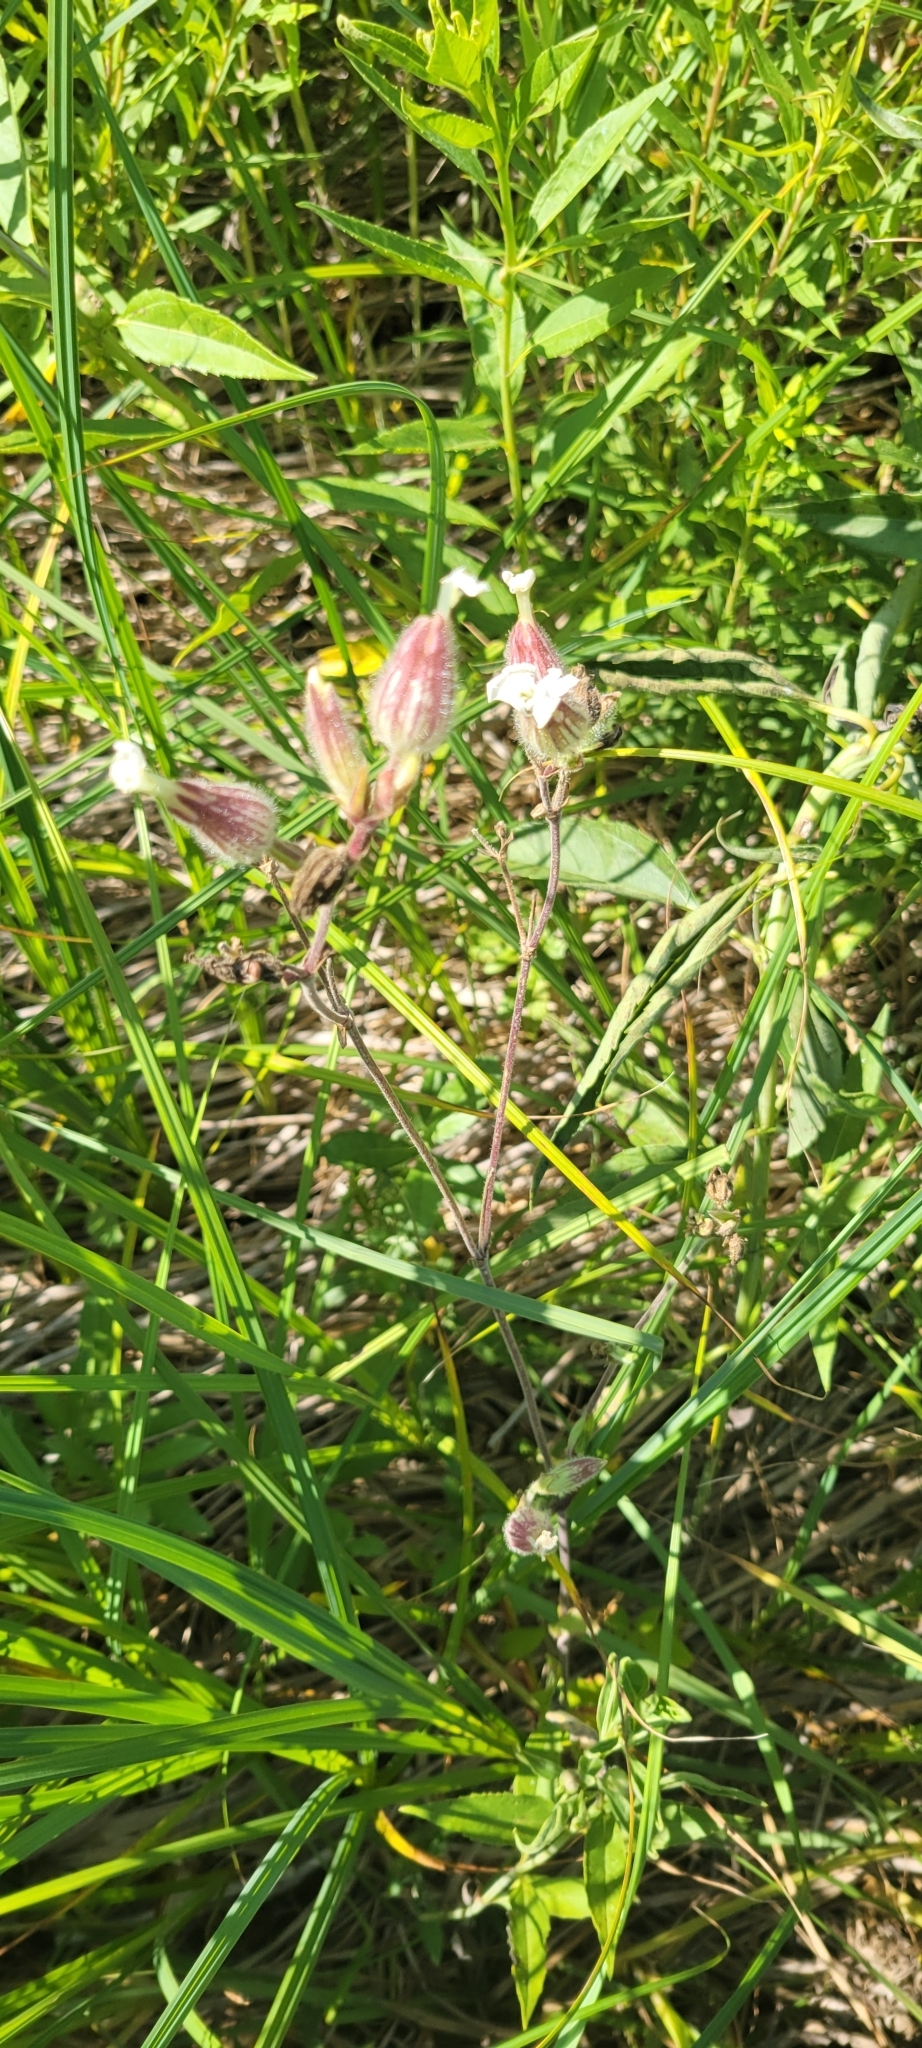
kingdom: Plantae
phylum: Tracheophyta
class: Magnoliopsida
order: Caryophyllales
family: Caryophyllaceae
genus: Silene
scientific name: Silene latifolia
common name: White campion
